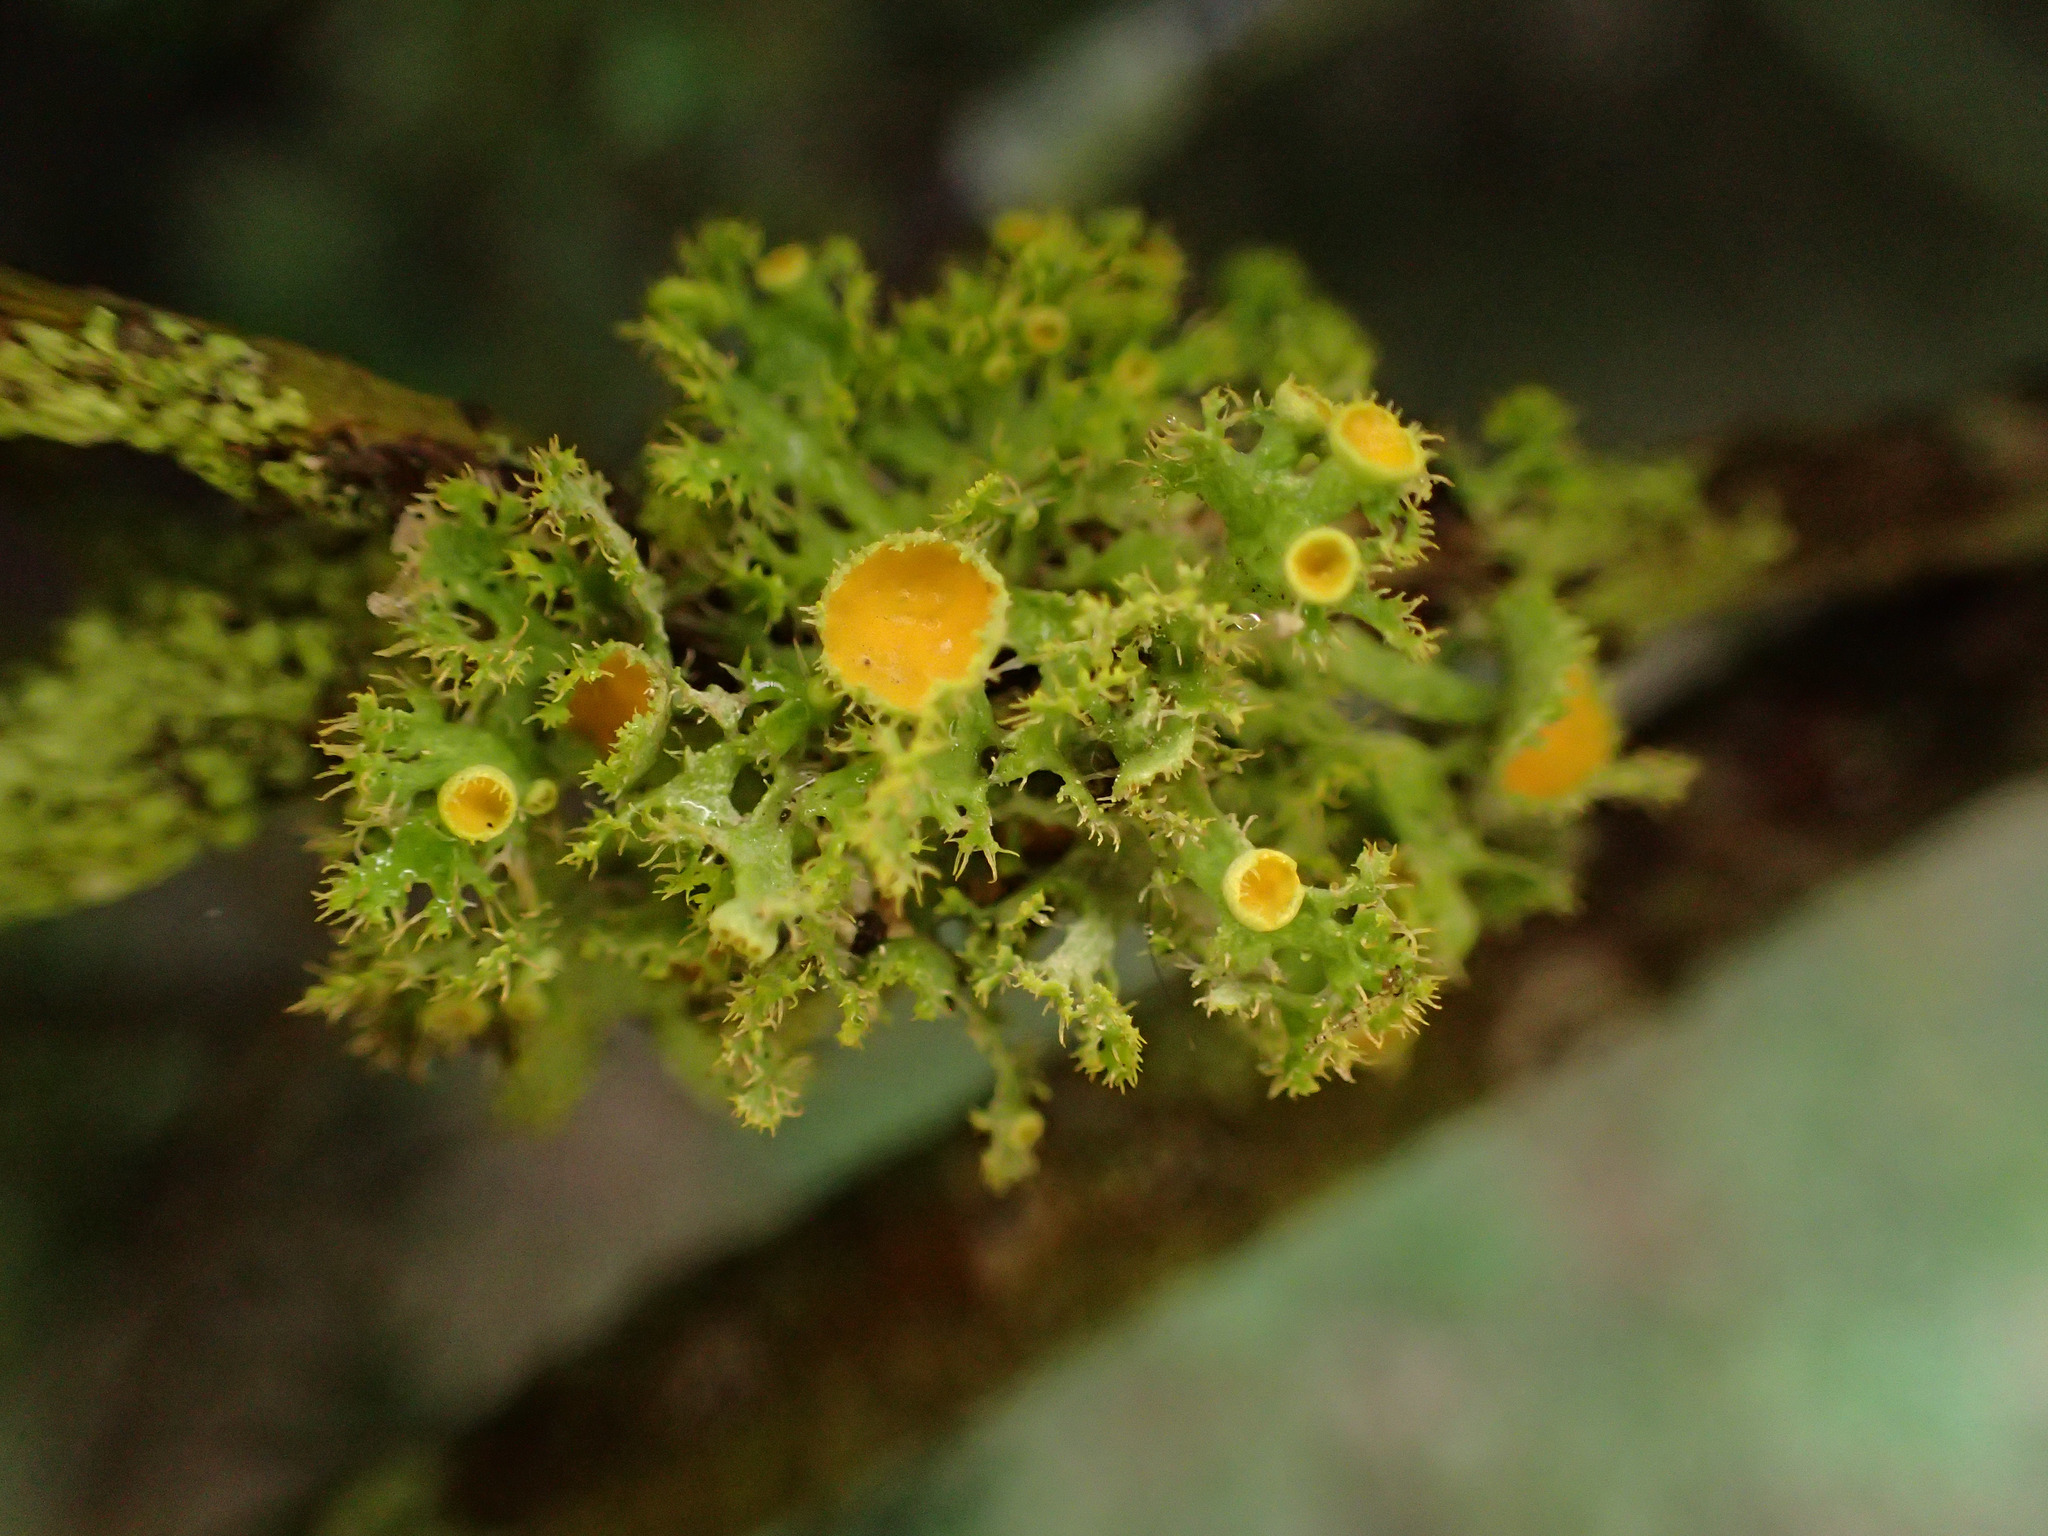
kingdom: Fungi
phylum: Ascomycota
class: Lecanoromycetes
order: Teloschistales
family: Teloschistaceae
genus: Niorma
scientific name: Niorma chrysophthalma
